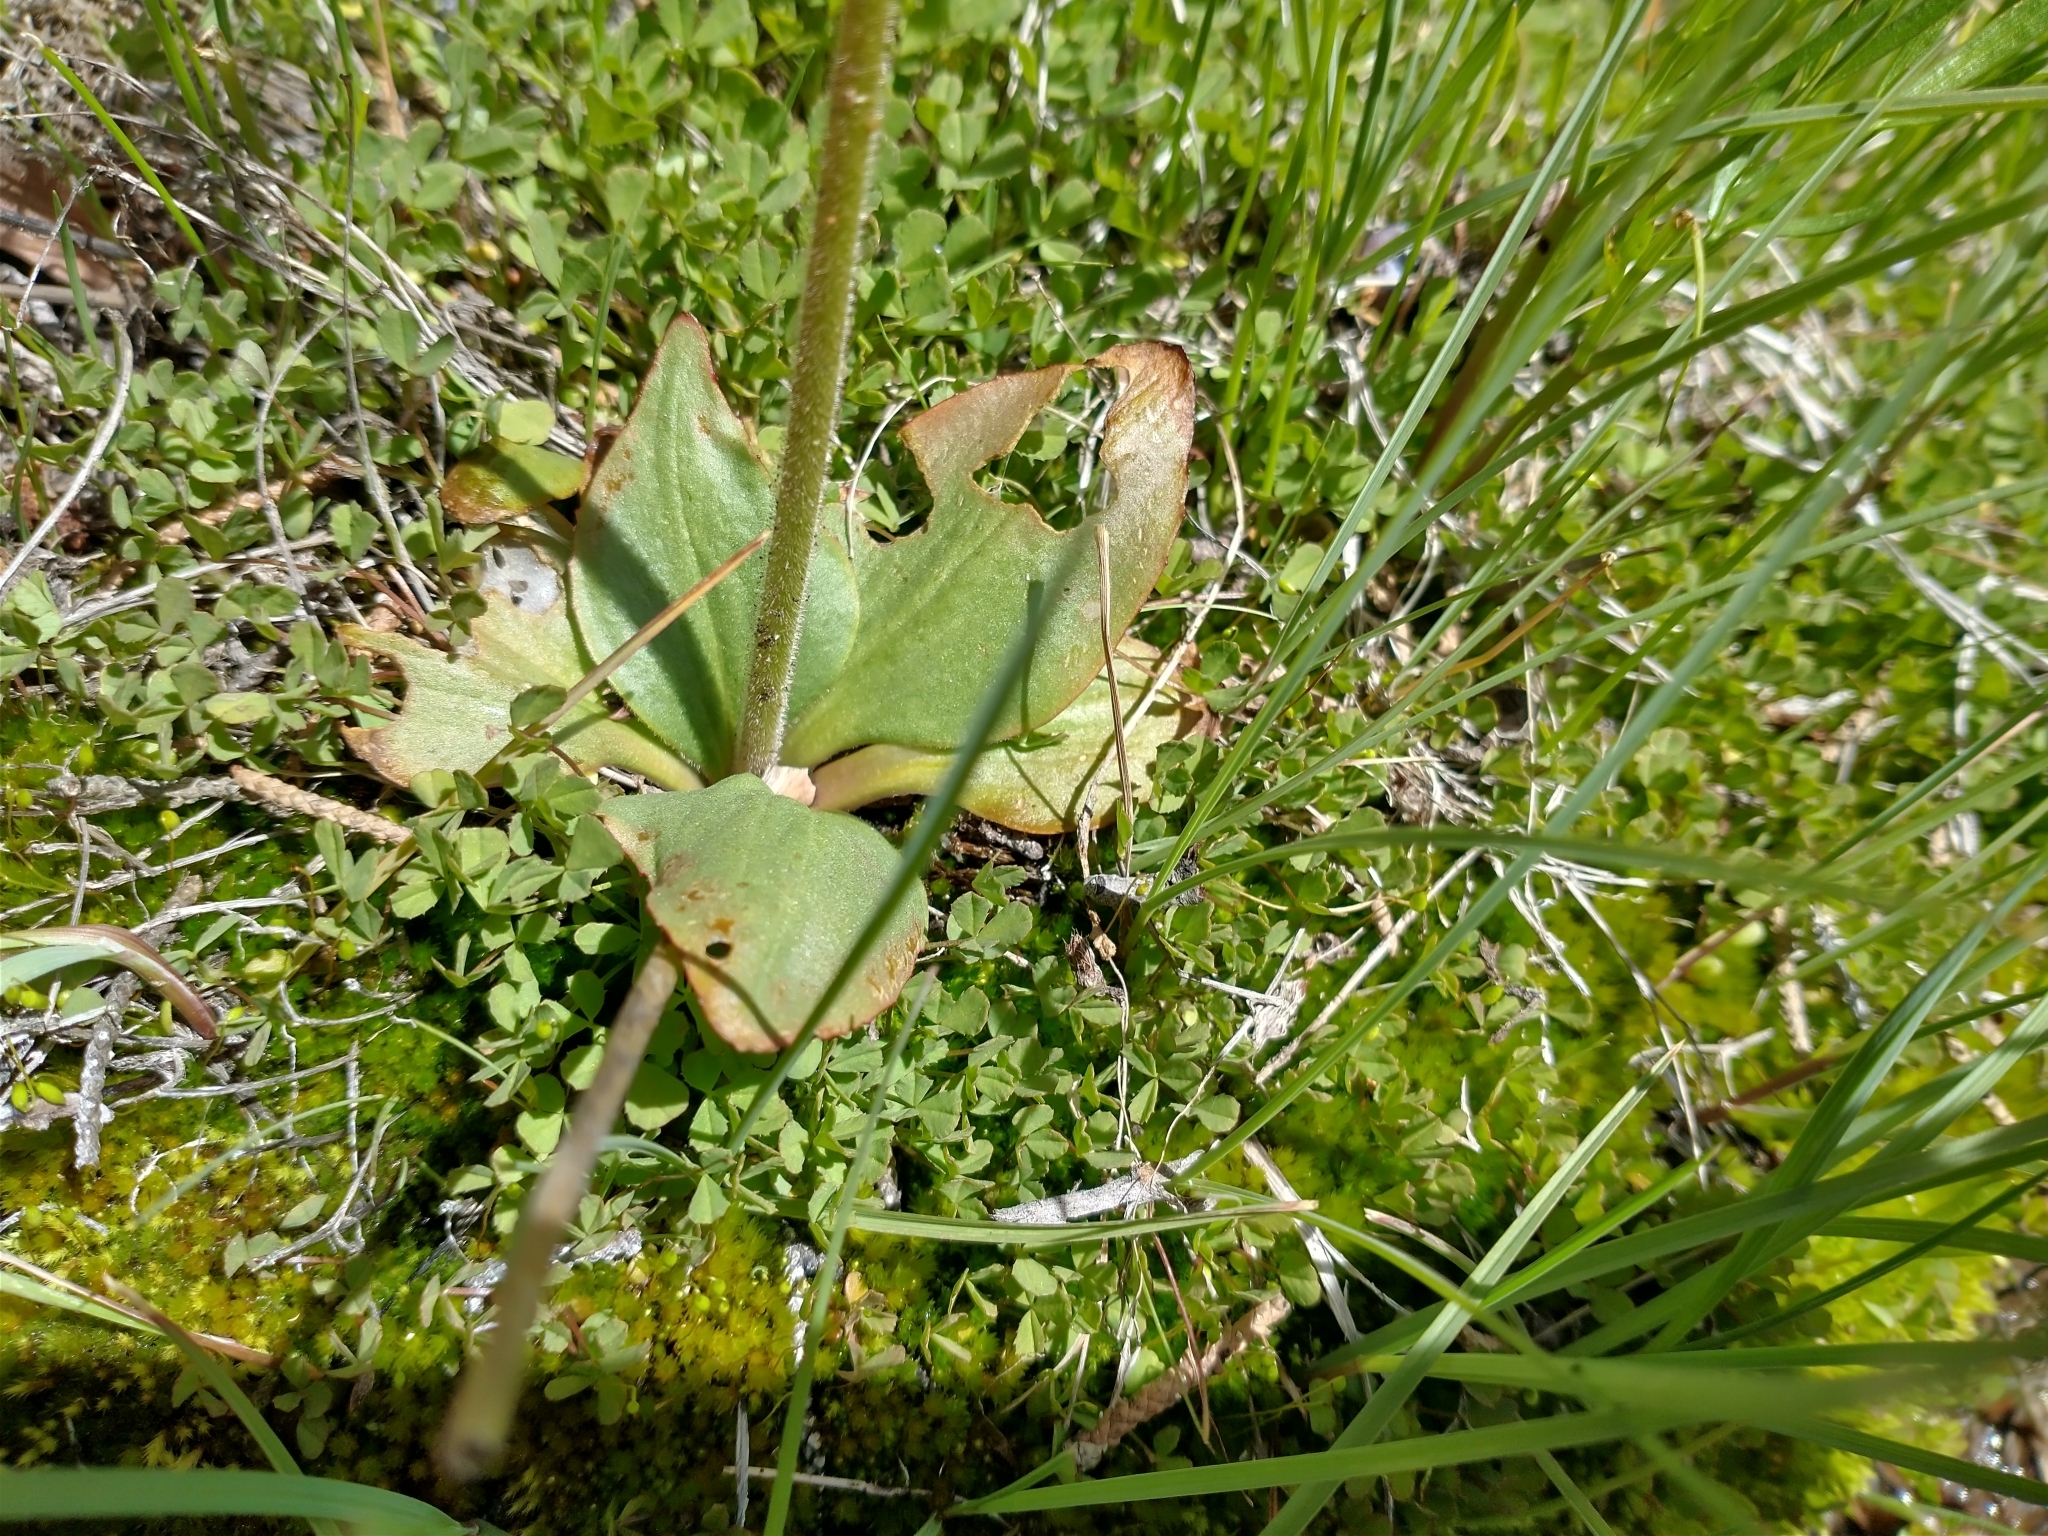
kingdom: Plantae
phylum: Tracheophyta
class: Magnoliopsida
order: Saxifragales
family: Saxifragaceae
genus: Micranthes
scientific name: Micranthes oregana
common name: Bog saxifrage
